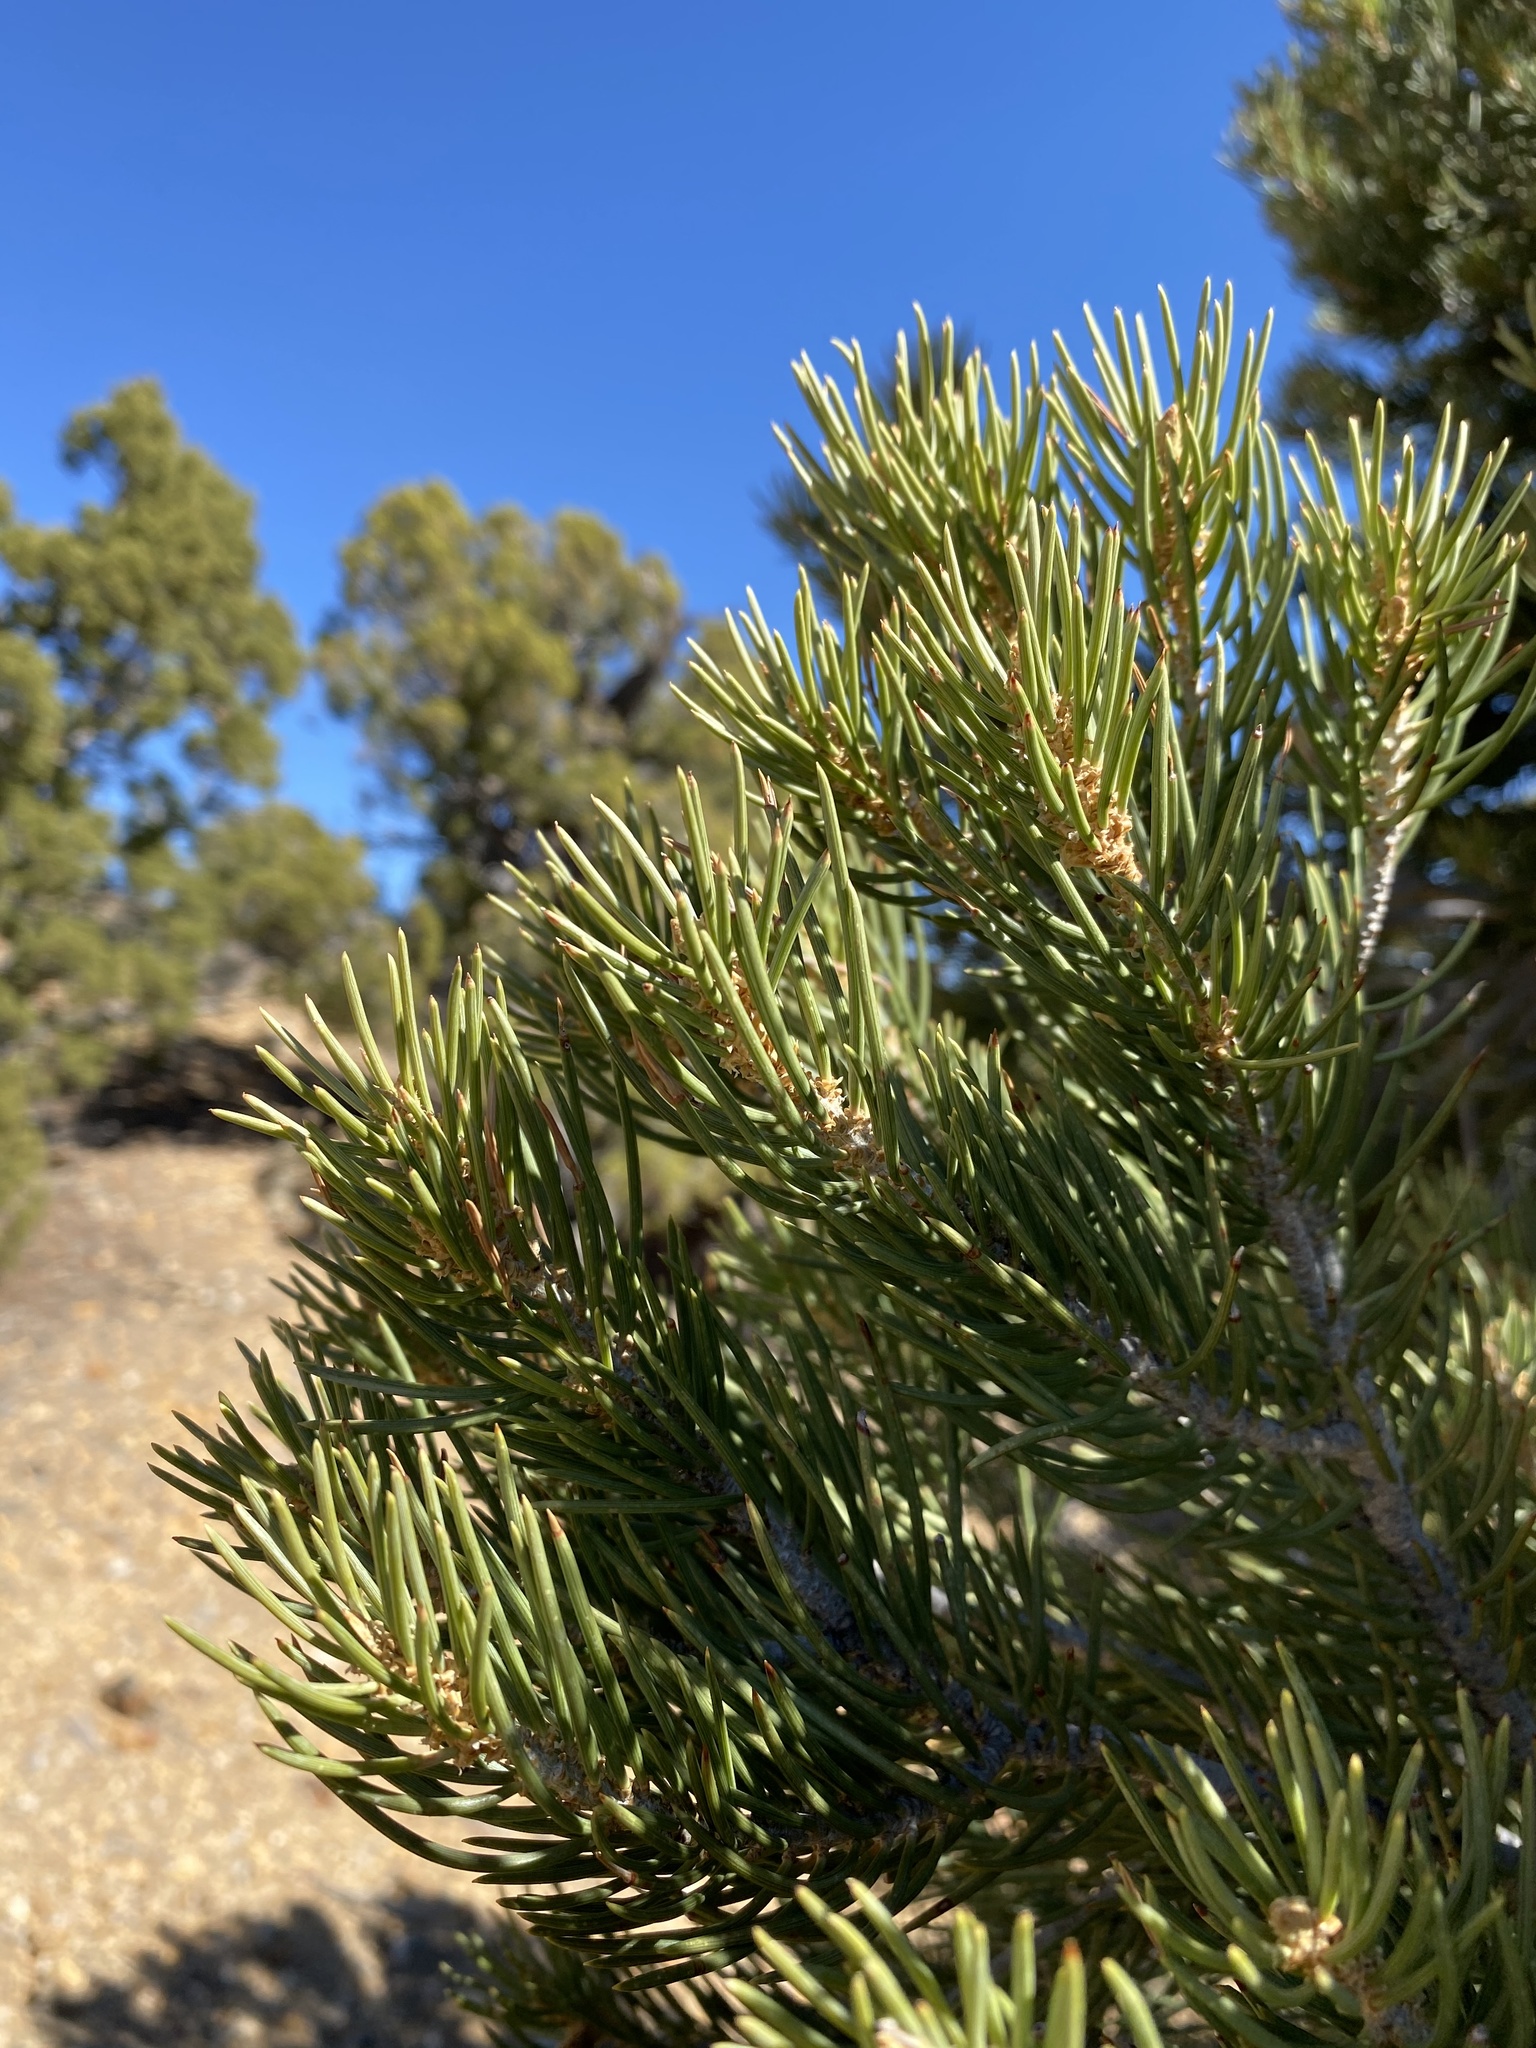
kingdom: Plantae
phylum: Tracheophyta
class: Pinopsida
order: Pinales
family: Pinaceae
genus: Pinus
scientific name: Pinus monophylla
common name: One-leaved nut pine
